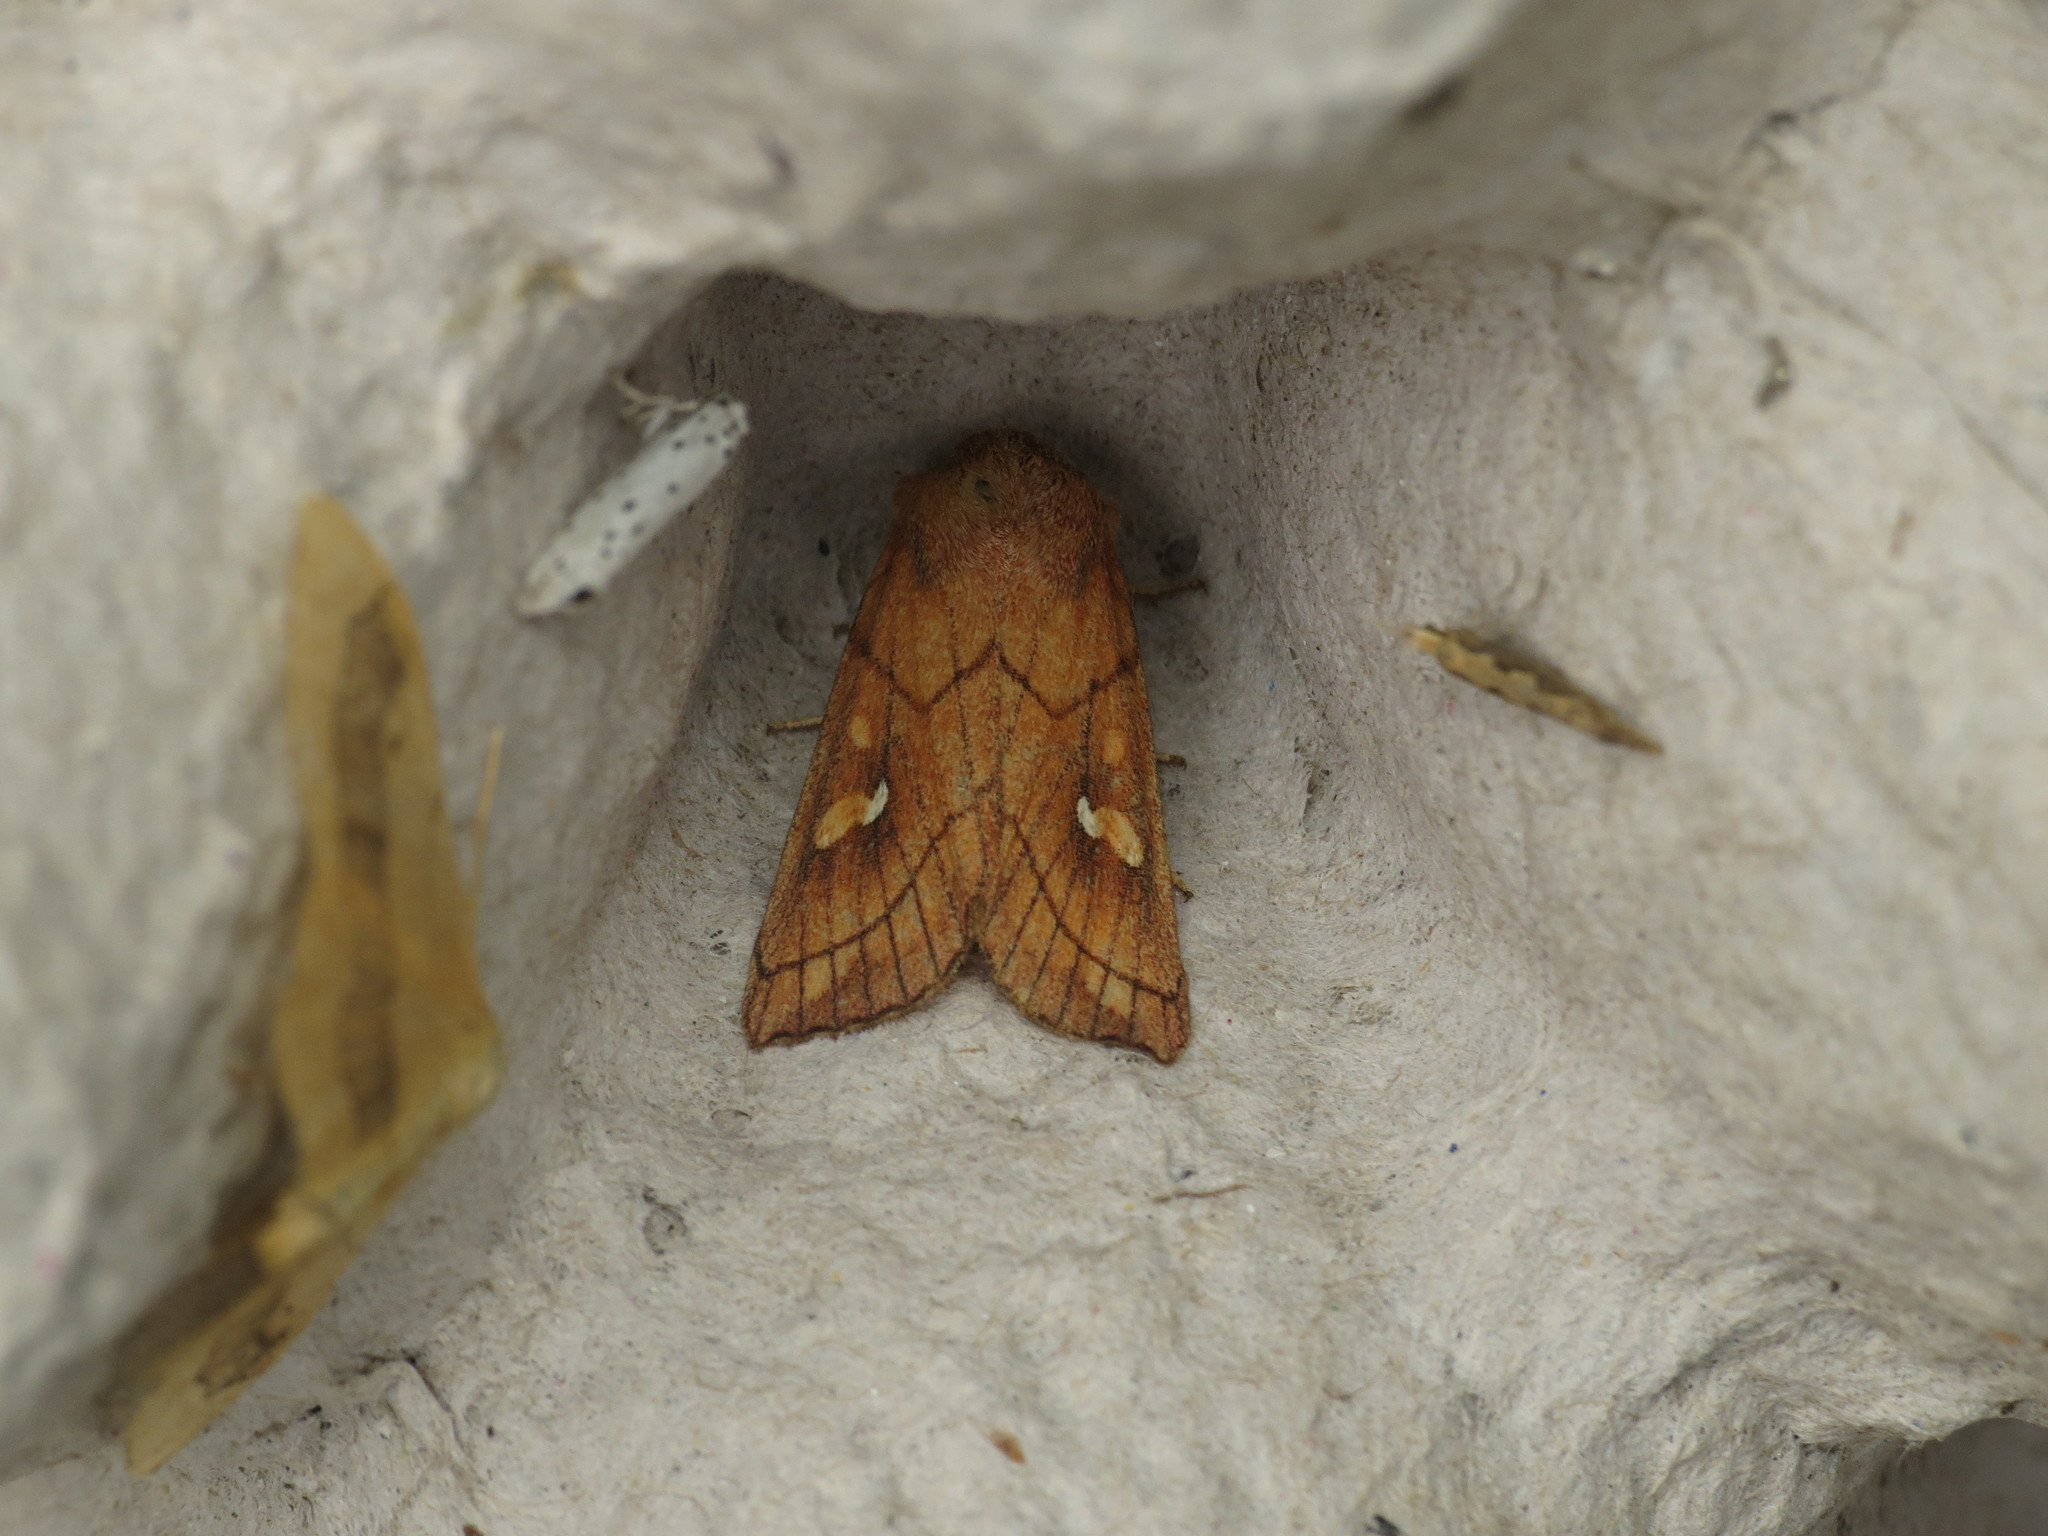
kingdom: Animalia
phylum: Arthropoda
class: Insecta
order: Lepidoptera
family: Noctuidae
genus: Mythimna
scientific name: Mythimna conigera
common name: Brown-line bright-eye
